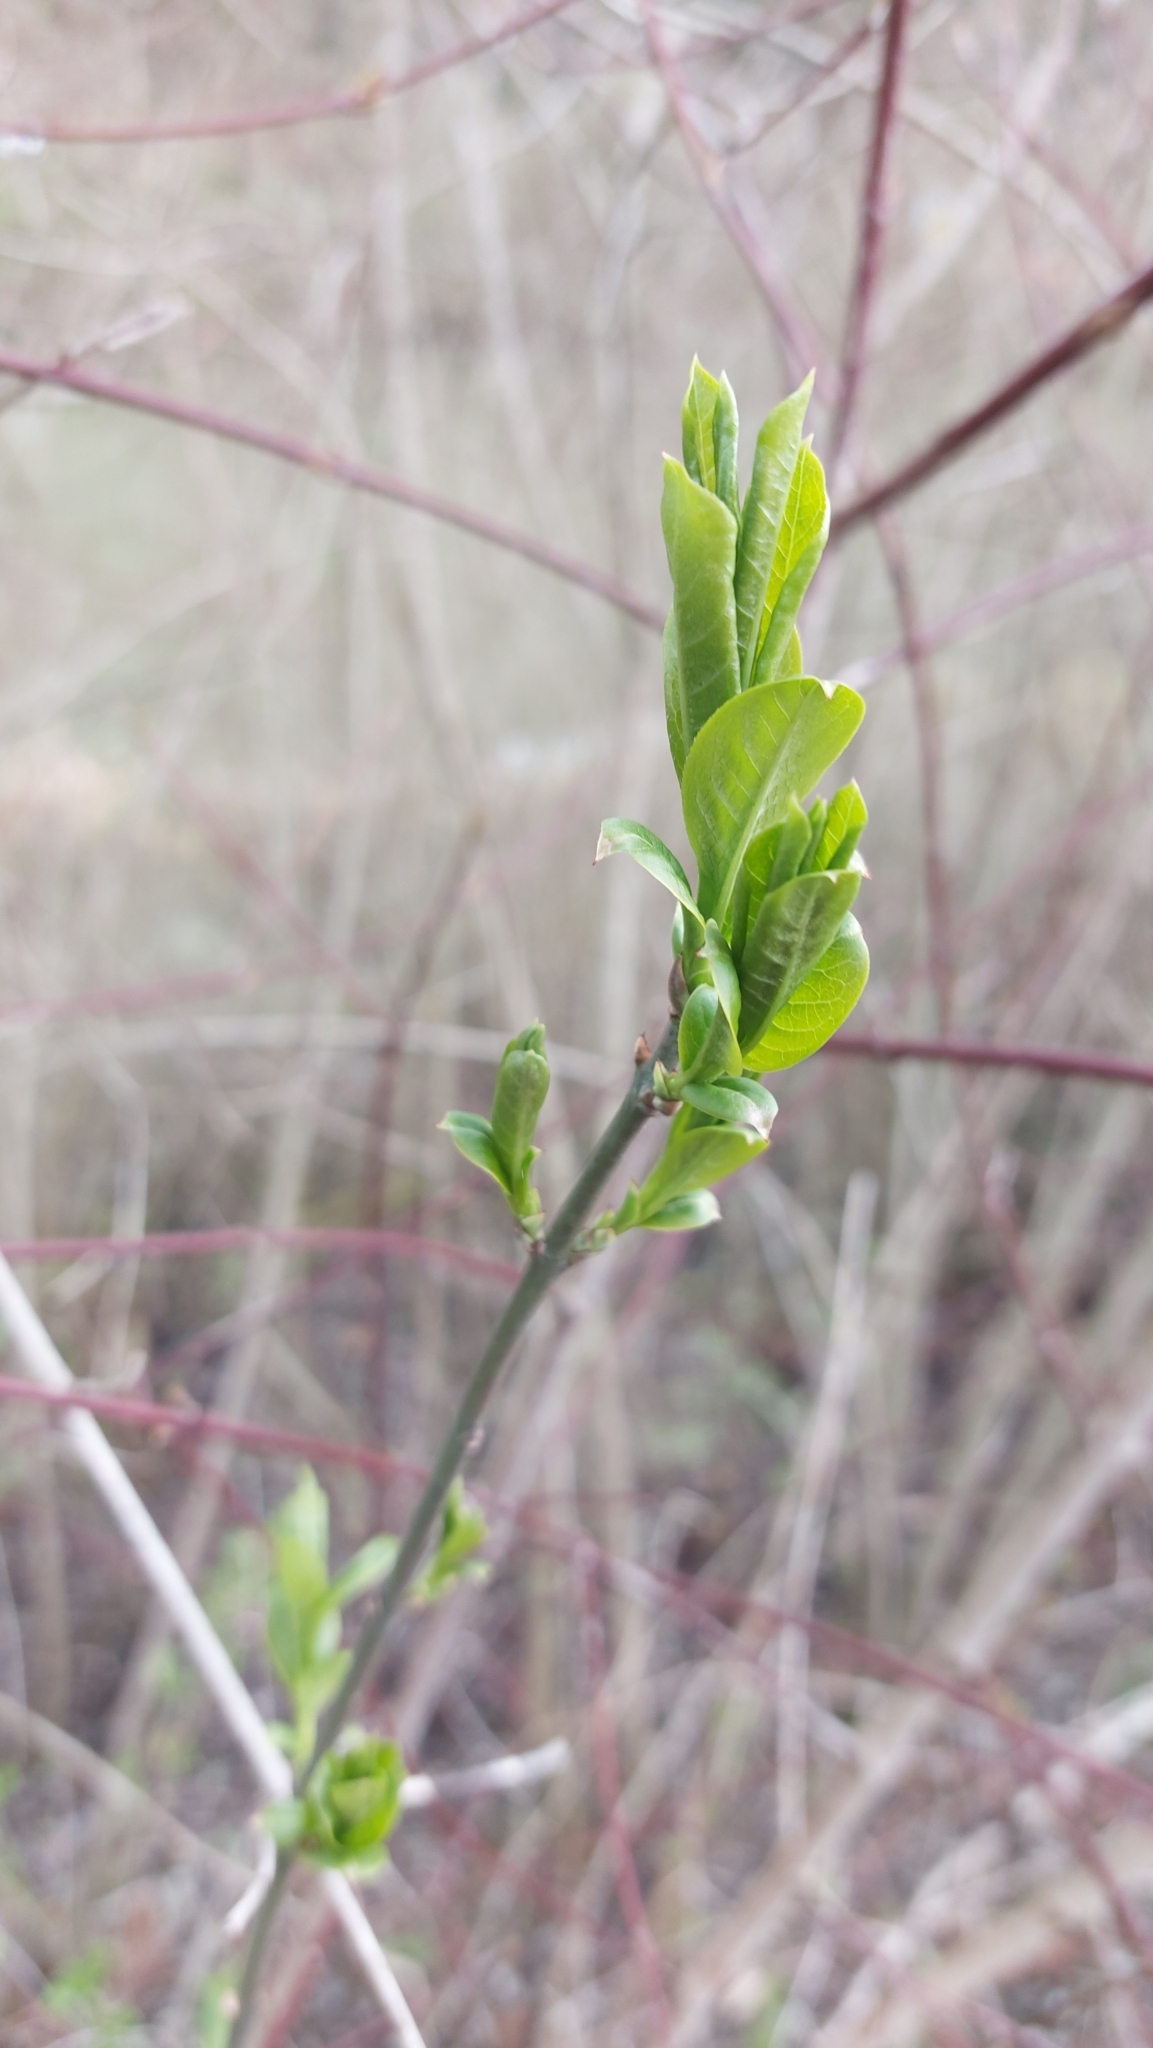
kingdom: Plantae
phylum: Tracheophyta
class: Magnoliopsida
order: Celastrales
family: Celastraceae
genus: Euonymus
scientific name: Euonymus europaeus
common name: Spindle
